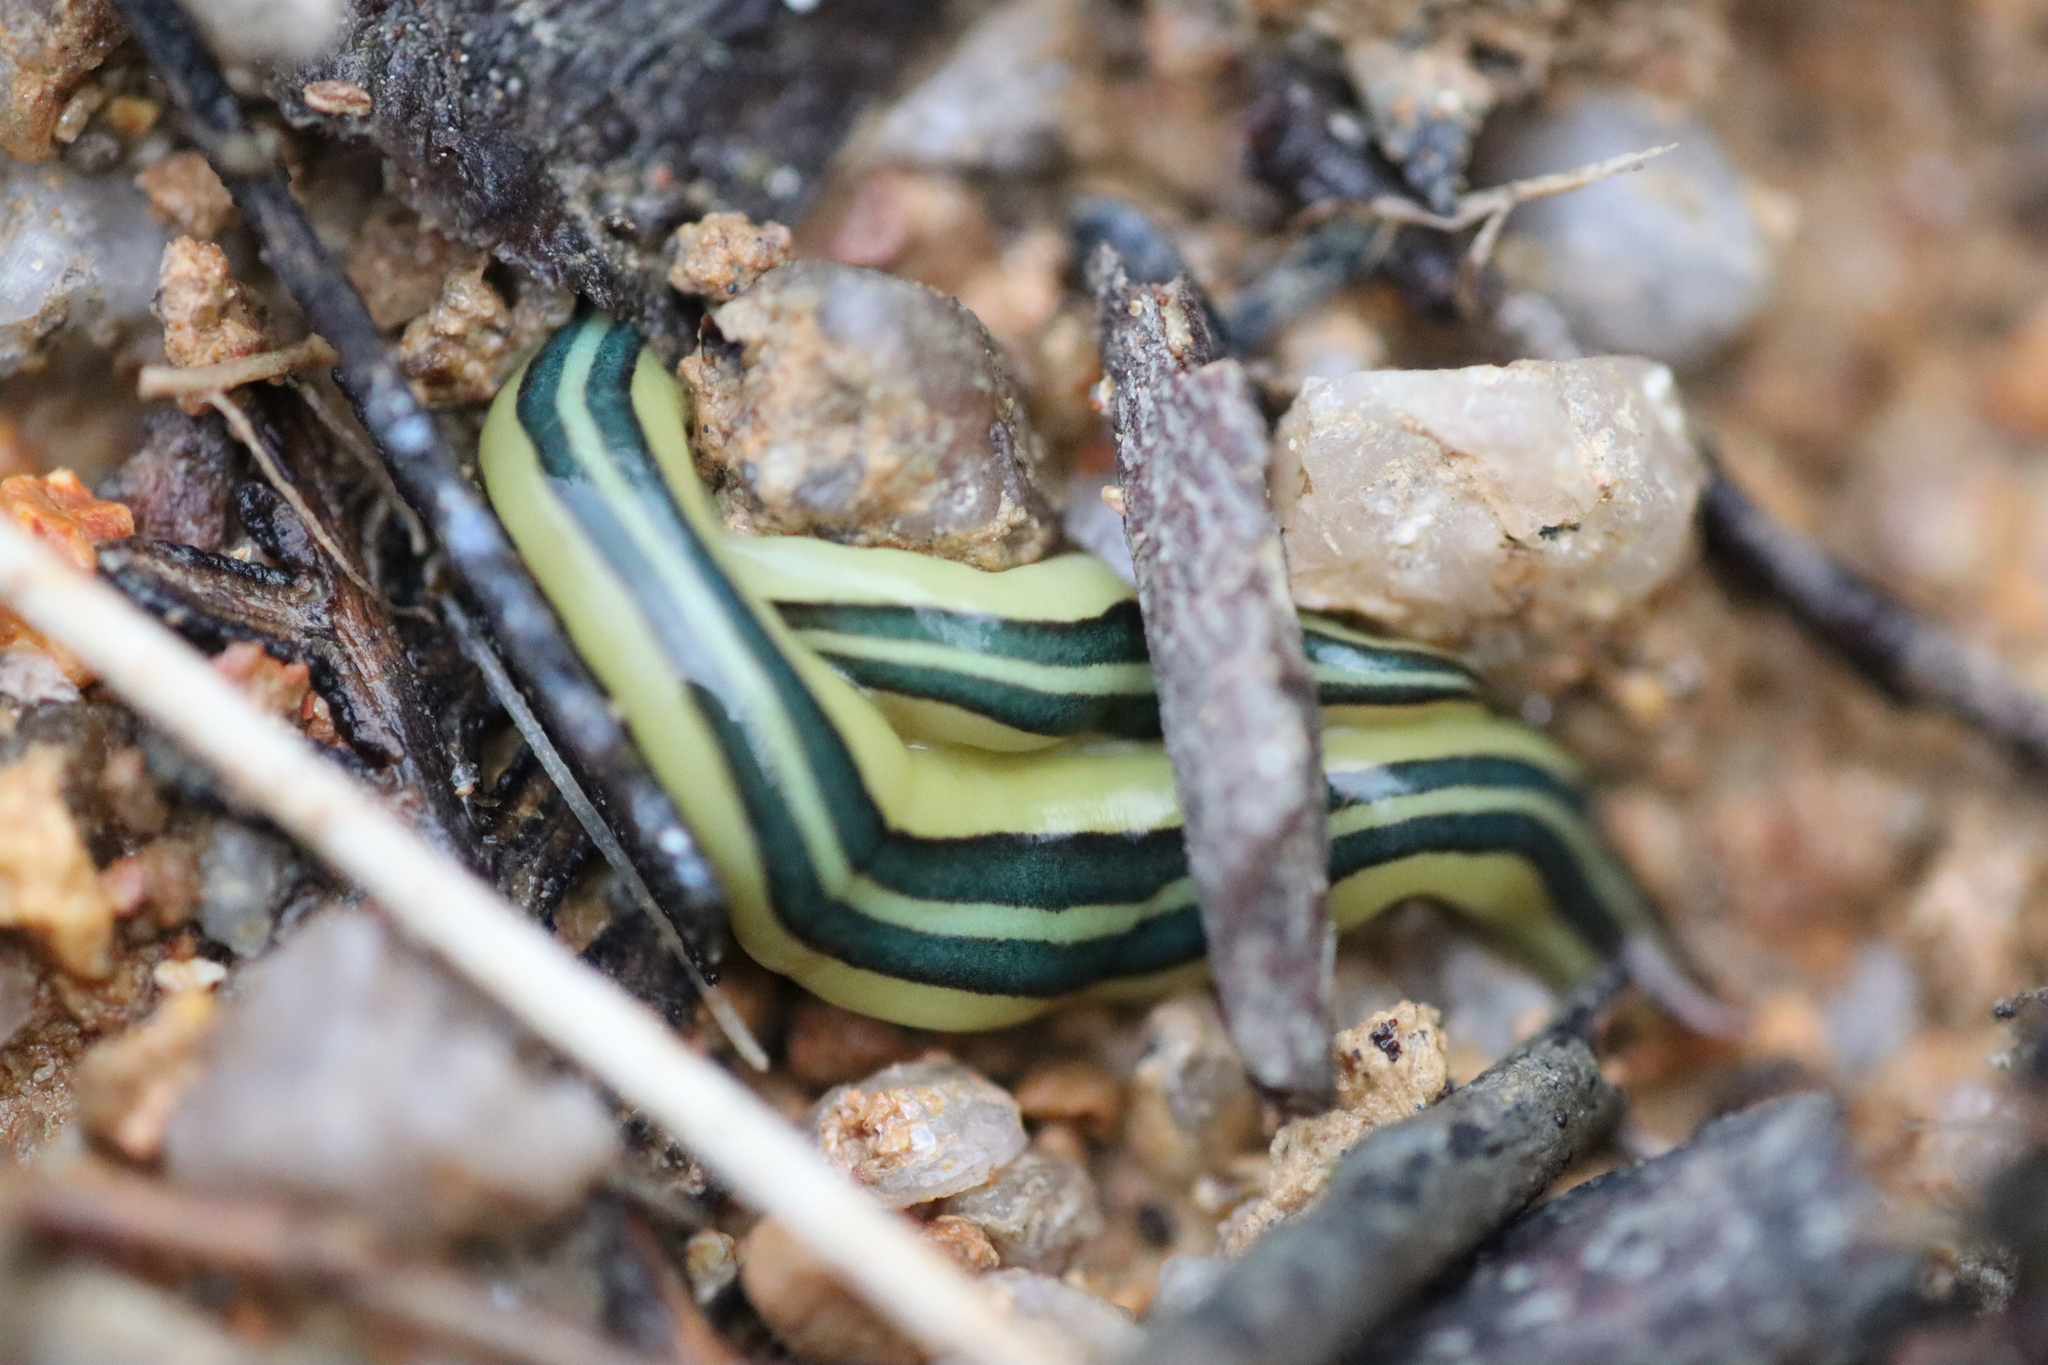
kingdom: Animalia
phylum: Platyhelminthes
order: Tricladida
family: Geoplanidae
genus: Caenoplana
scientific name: Caenoplana dubia
